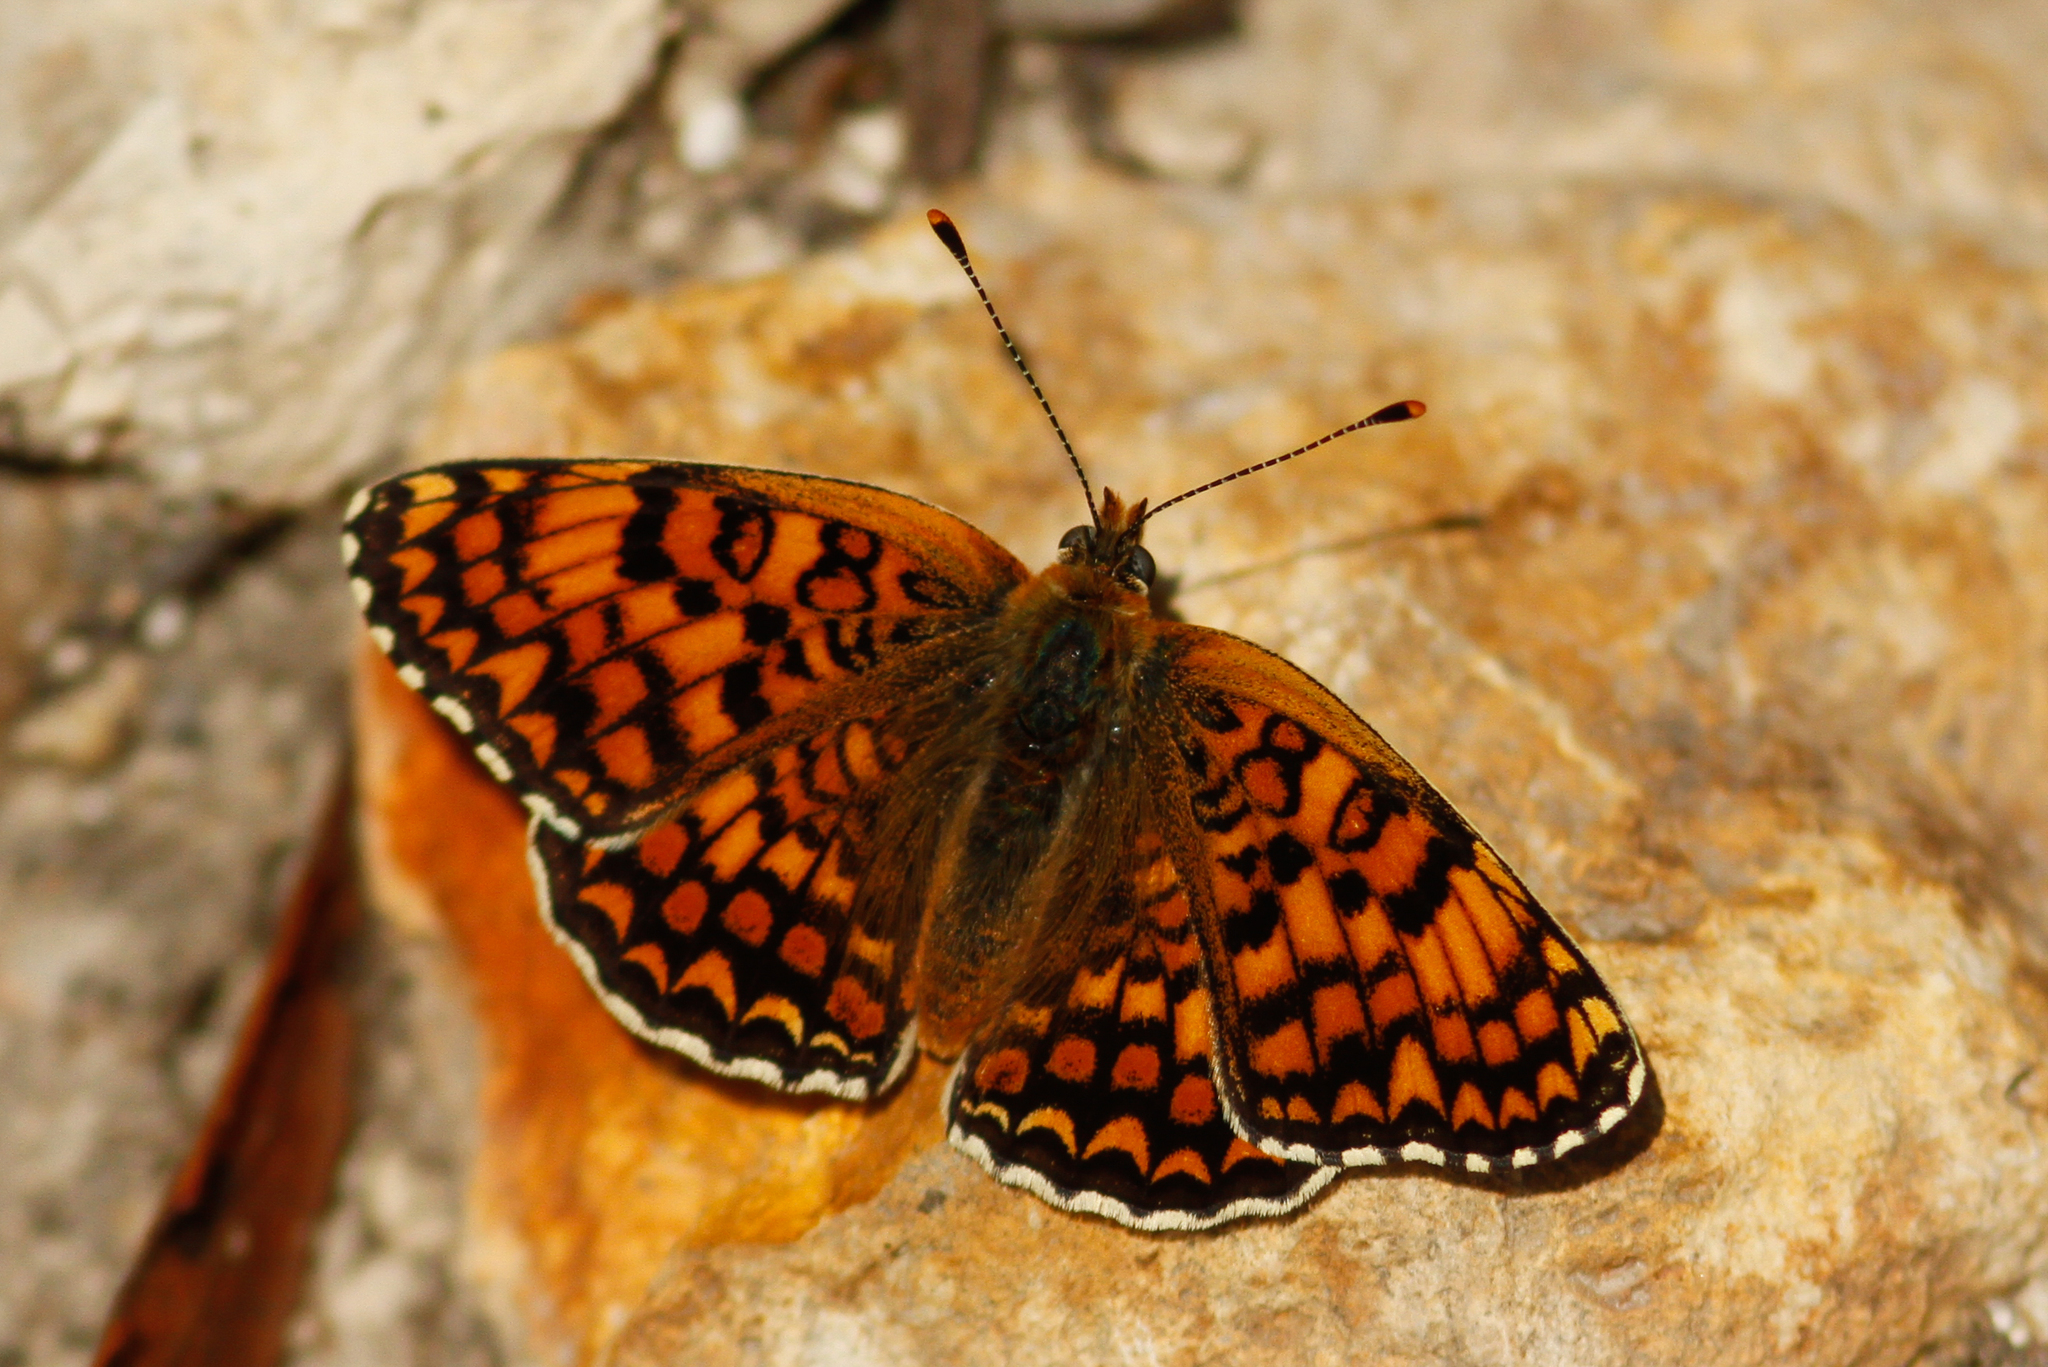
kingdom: Animalia
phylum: Arthropoda
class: Insecta
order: Lepidoptera
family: Nymphalidae
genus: Melitaea
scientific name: Melitaea phoebe
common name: Knapweed fritillary
